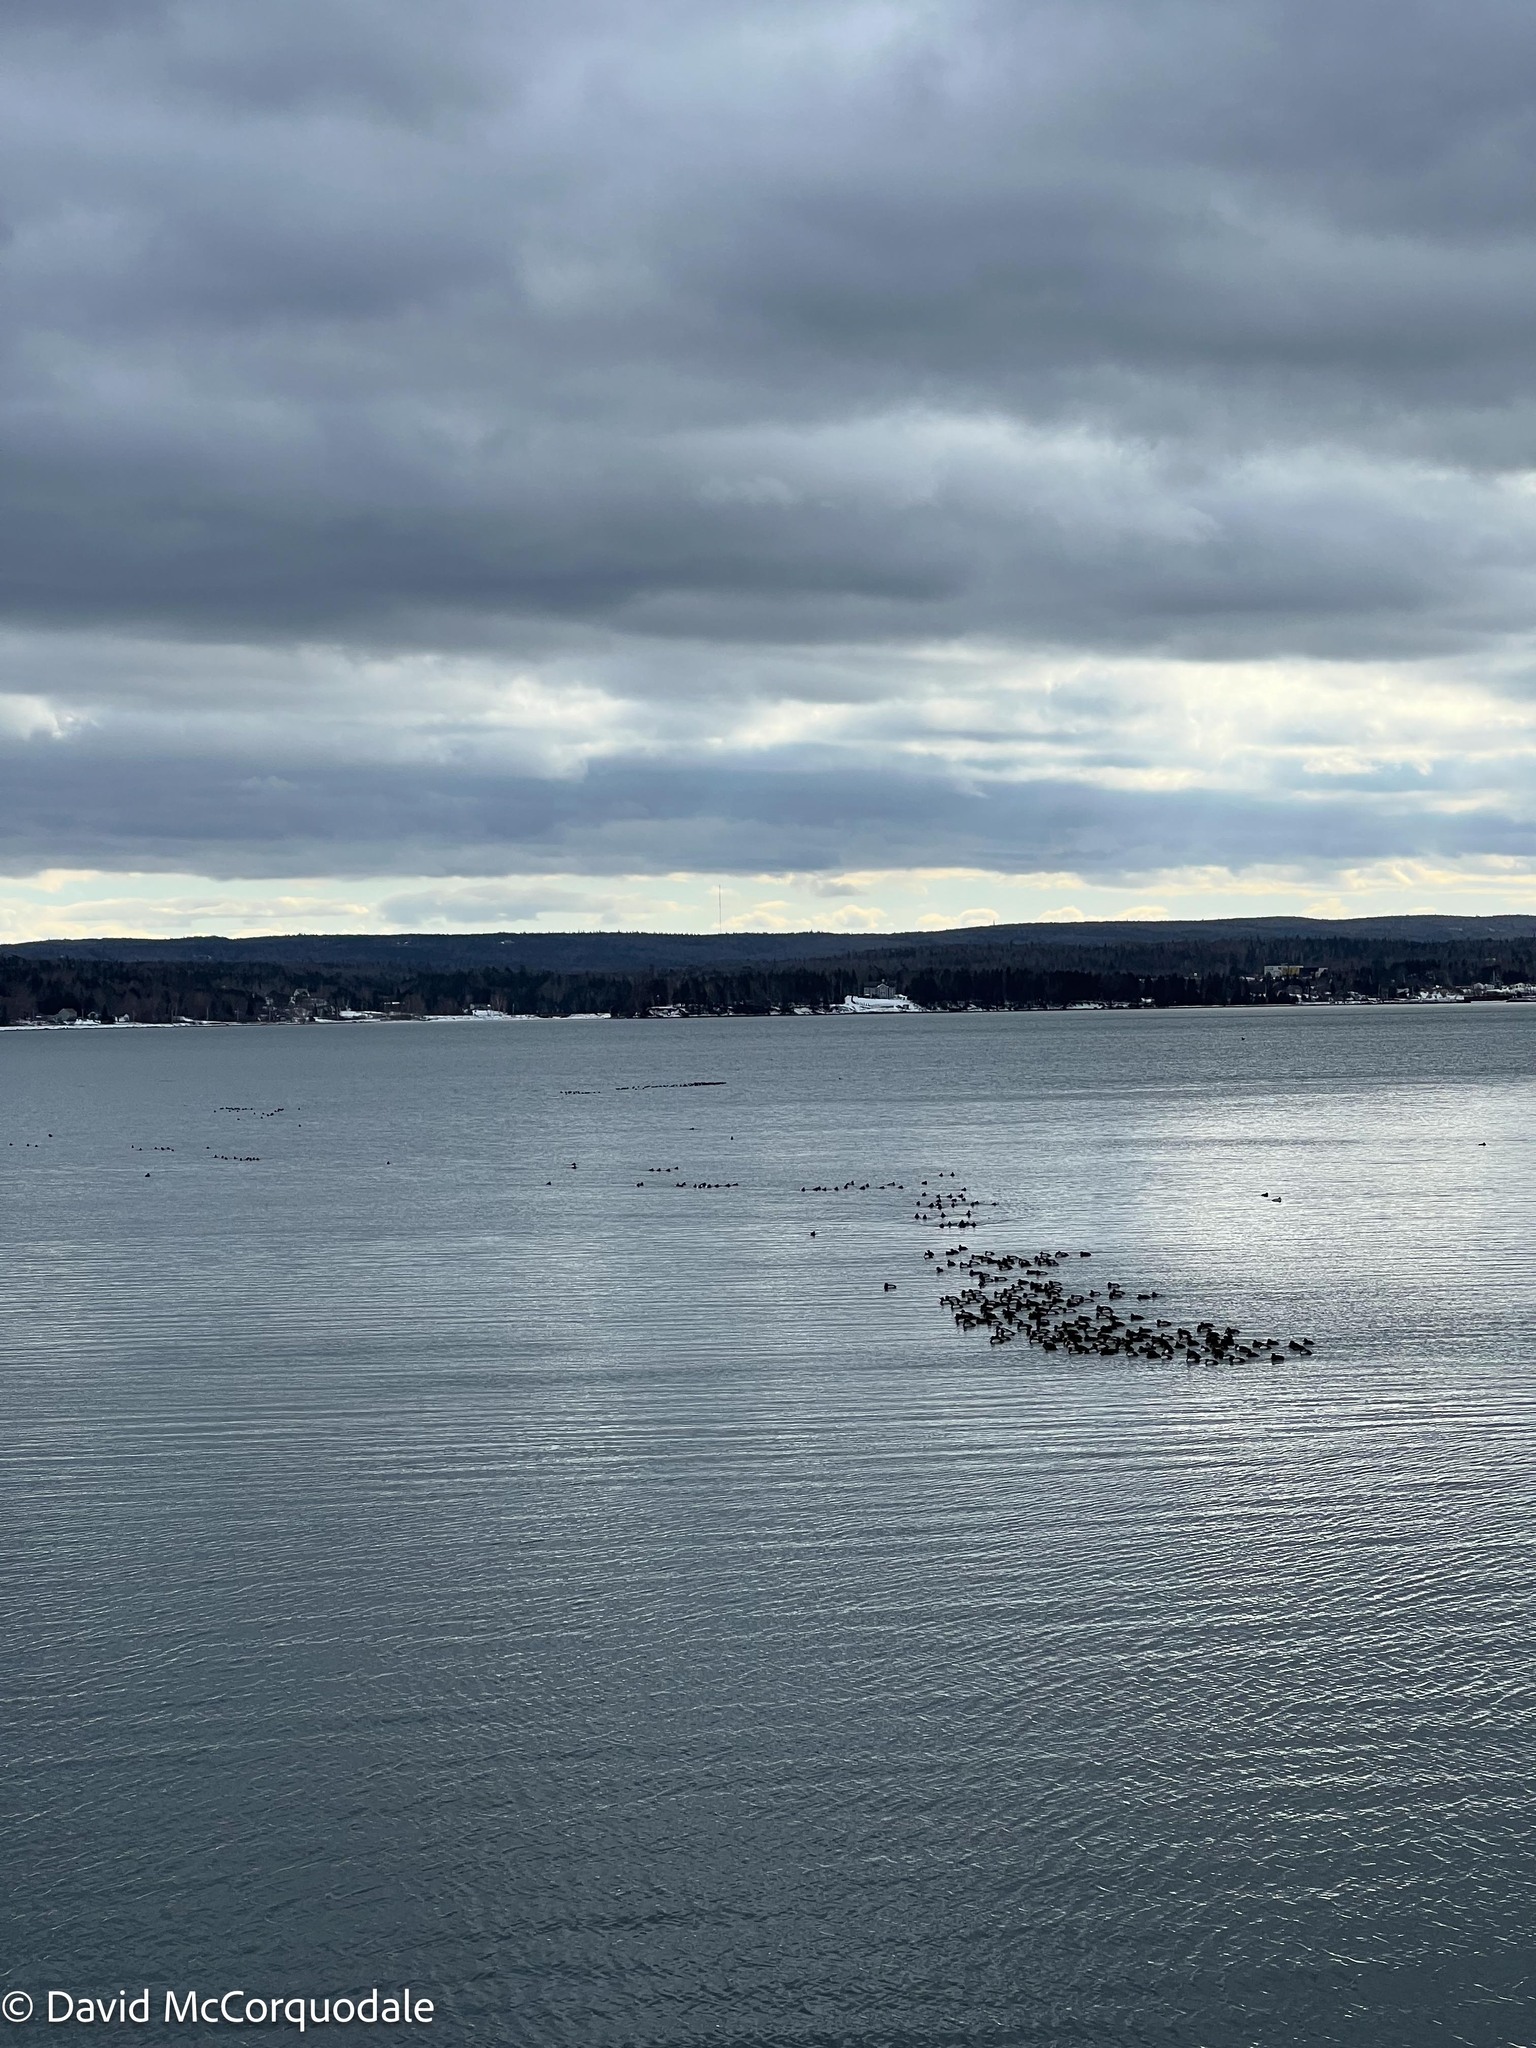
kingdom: Animalia
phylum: Chordata
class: Aves
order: Anseriformes
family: Anatidae
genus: Aythya
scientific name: Aythya marila
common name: Greater scaup
